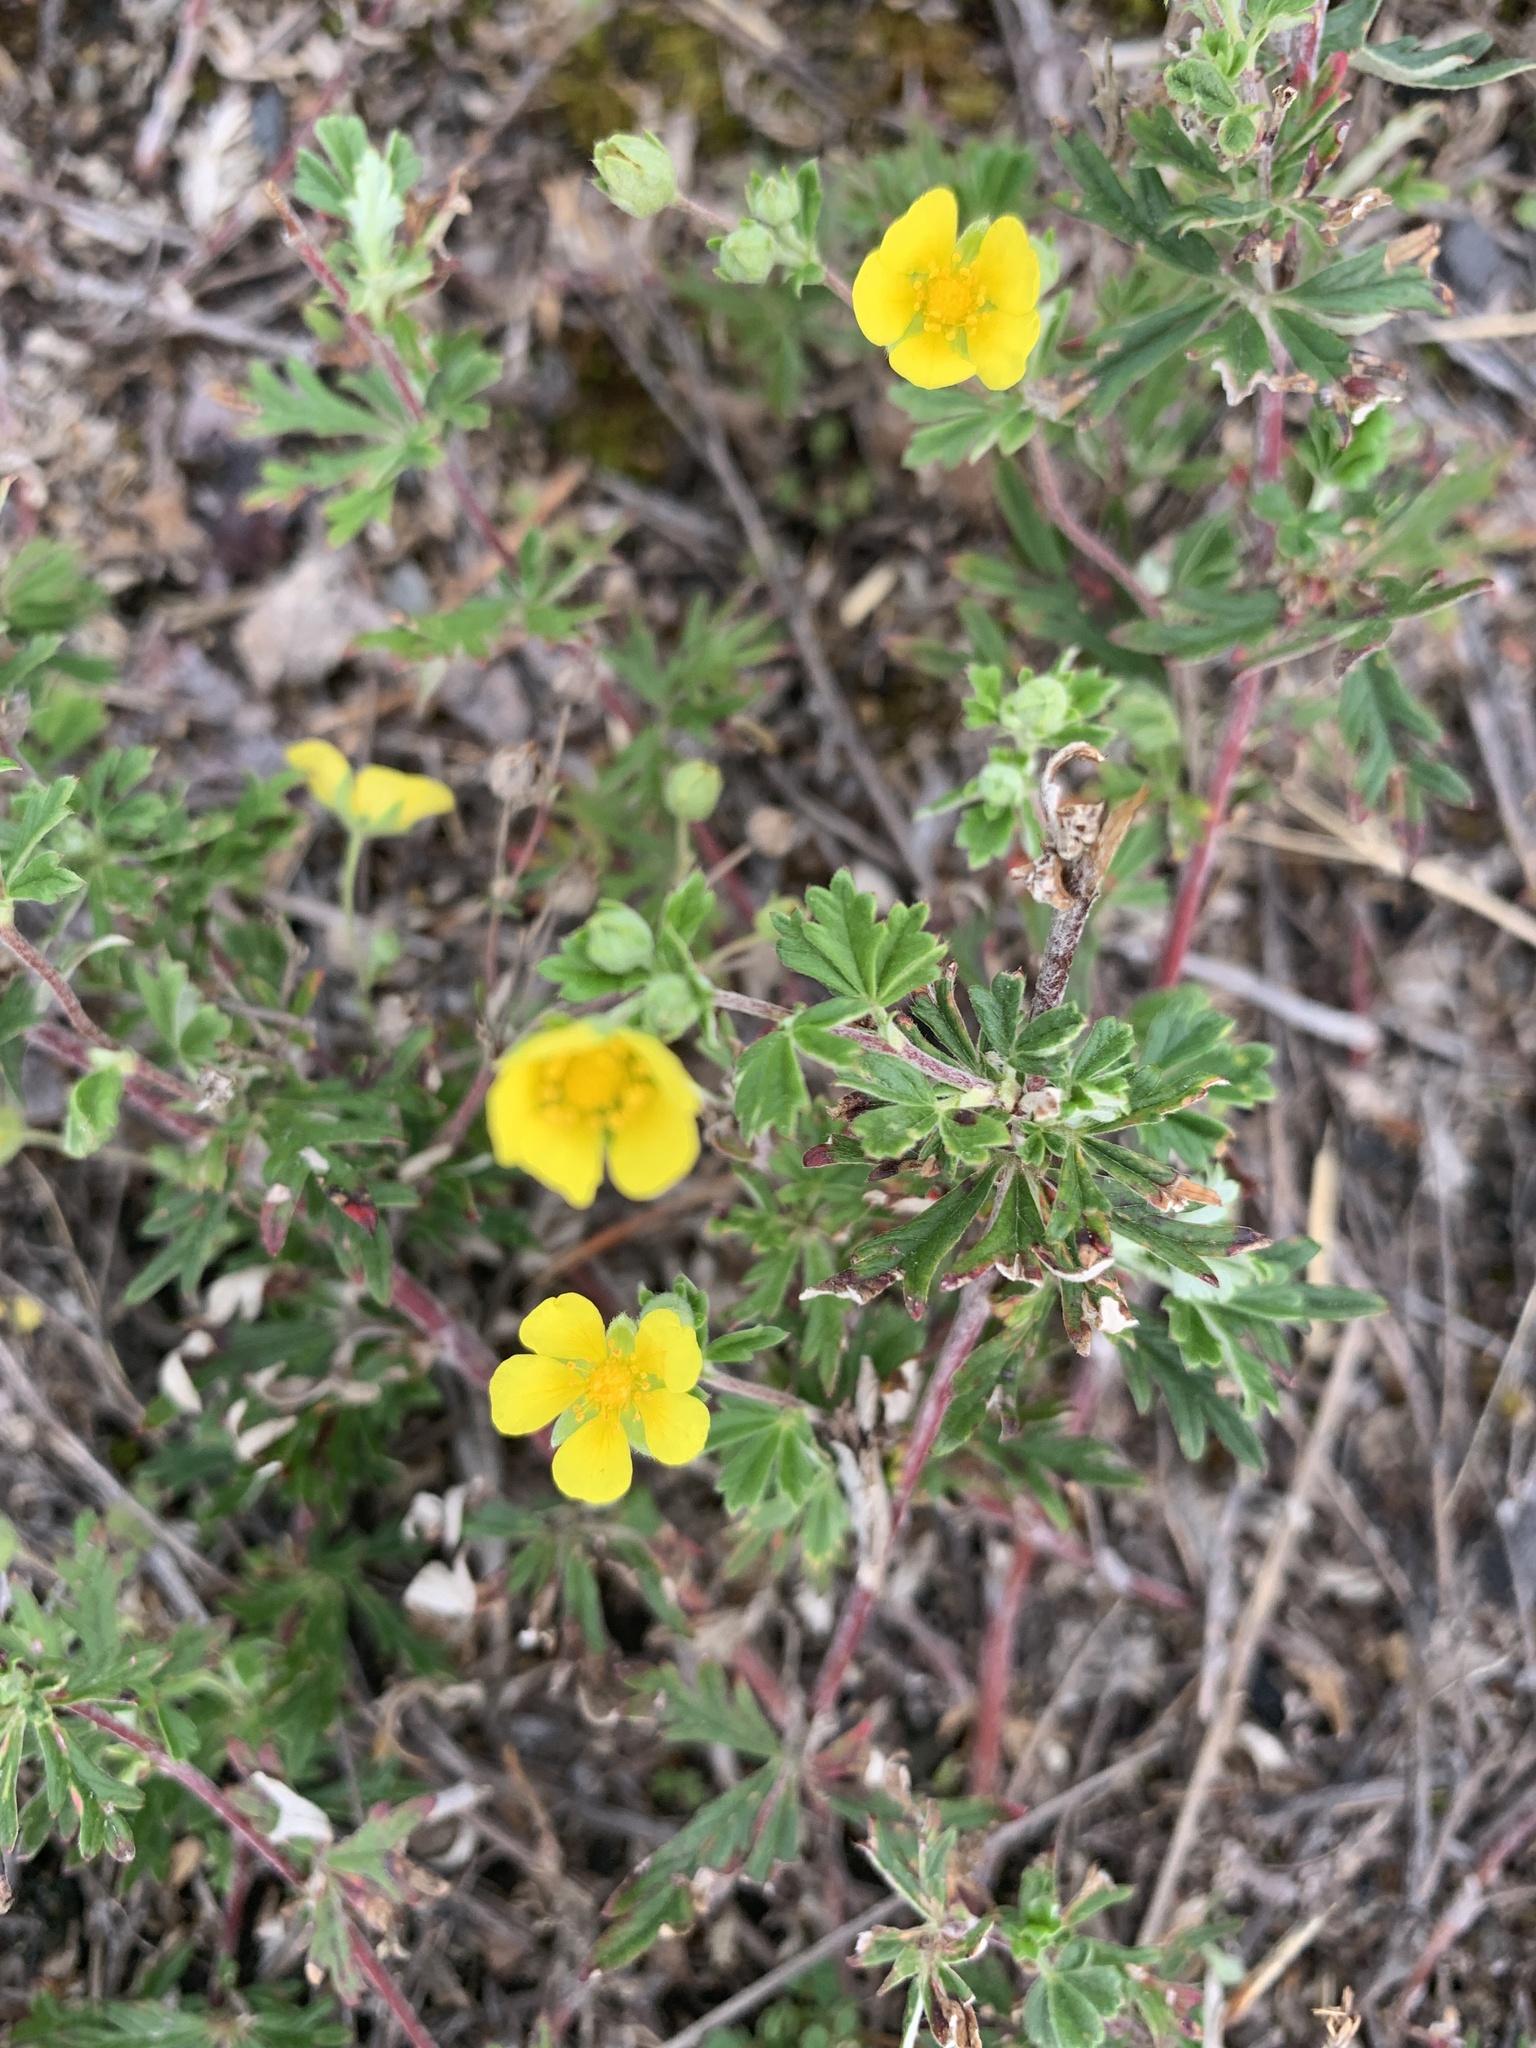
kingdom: Plantae
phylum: Tracheophyta
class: Magnoliopsida
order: Rosales
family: Rosaceae
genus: Potentilla
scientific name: Potentilla argentea
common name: Hoary cinquefoil
